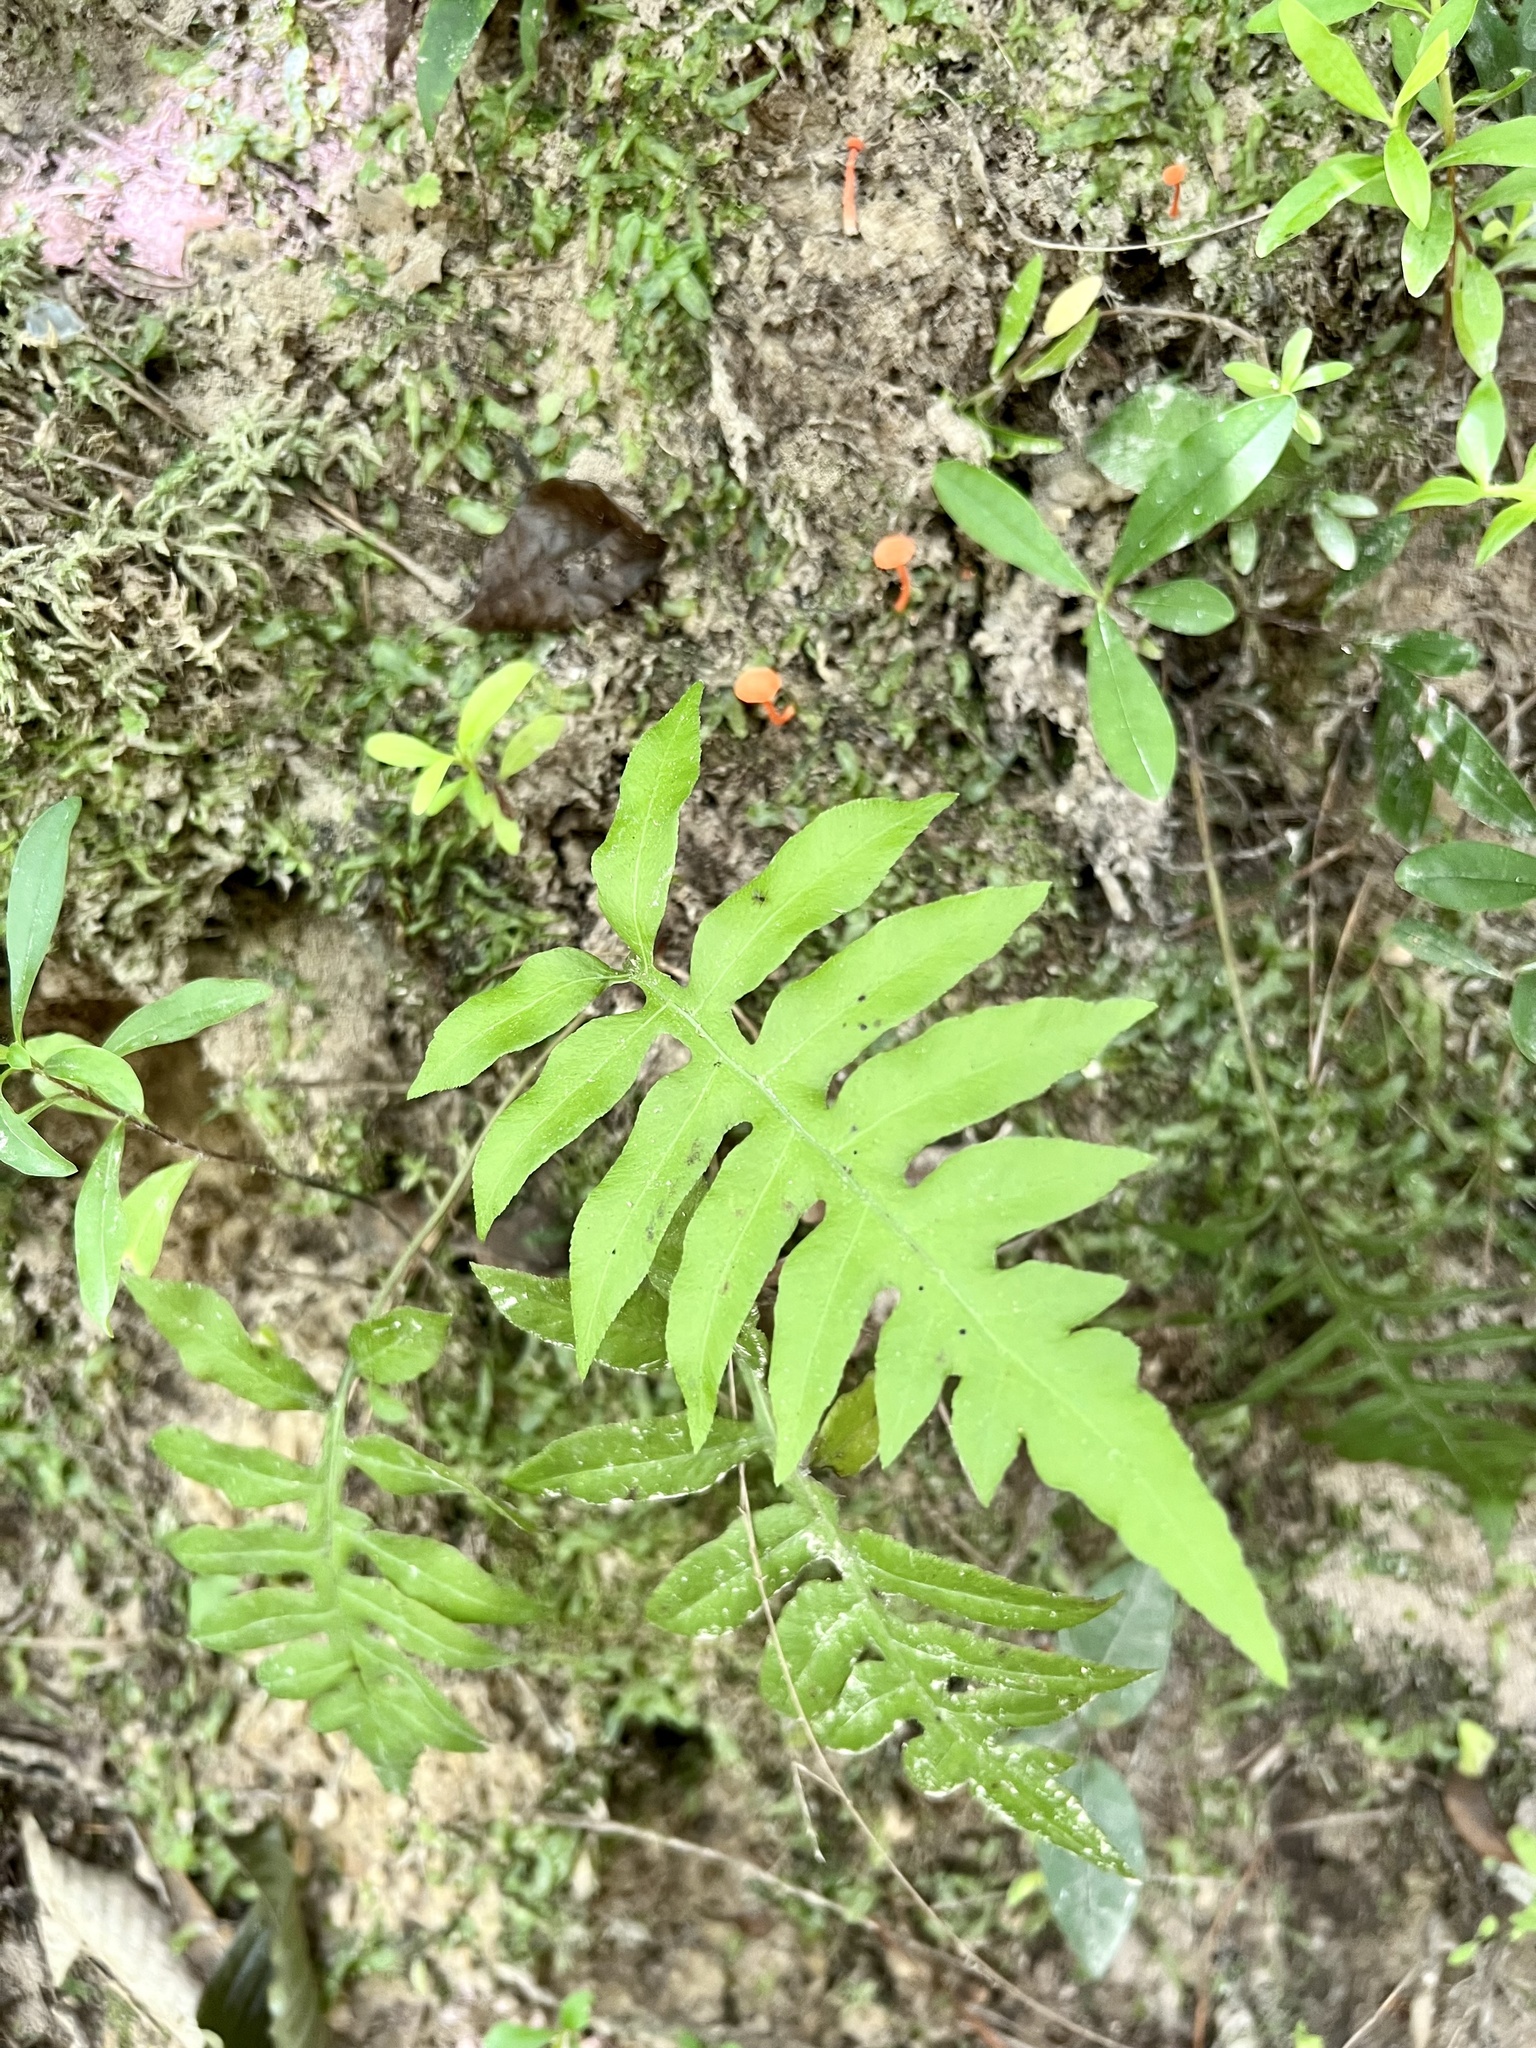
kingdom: Plantae
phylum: Tracheophyta
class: Polypodiopsida
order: Polypodiales
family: Blechnaceae
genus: Lorinseria
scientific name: Lorinseria areolata
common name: Dwarf chain fern
